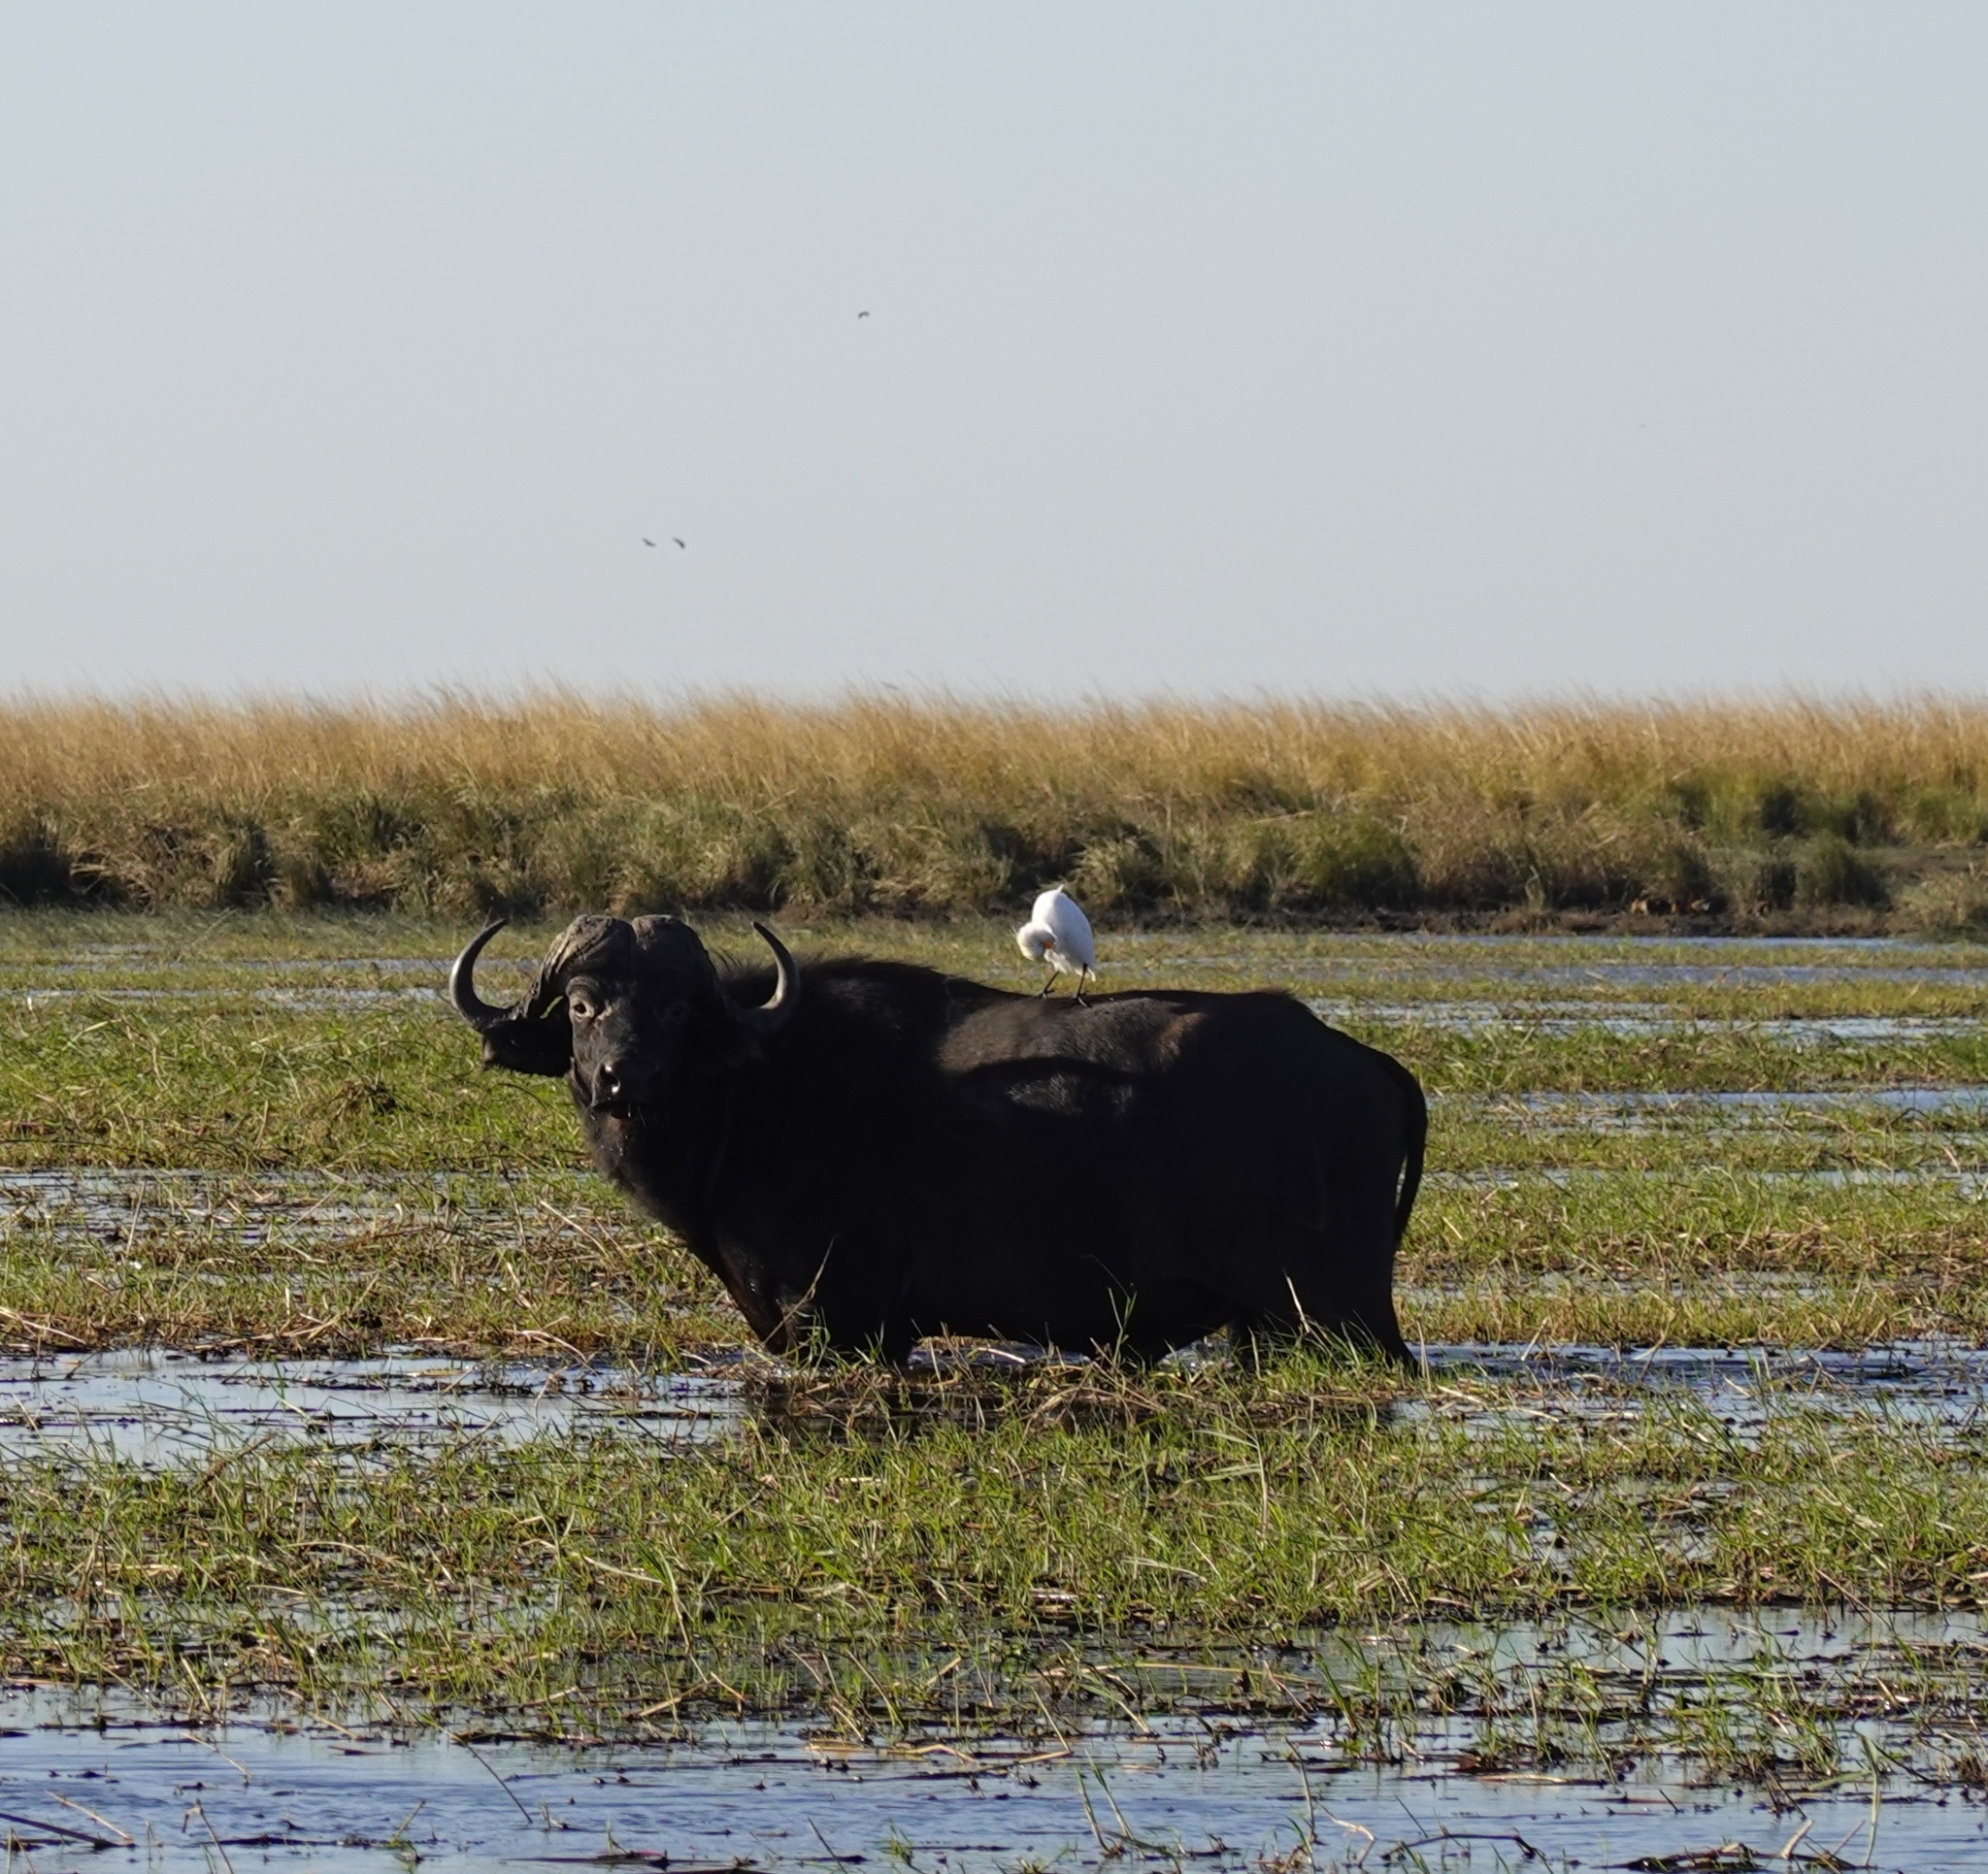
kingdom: Animalia
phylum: Chordata
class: Mammalia
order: Artiodactyla
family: Bovidae
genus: Syncerus
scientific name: Syncerus caffer
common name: African buffalo
